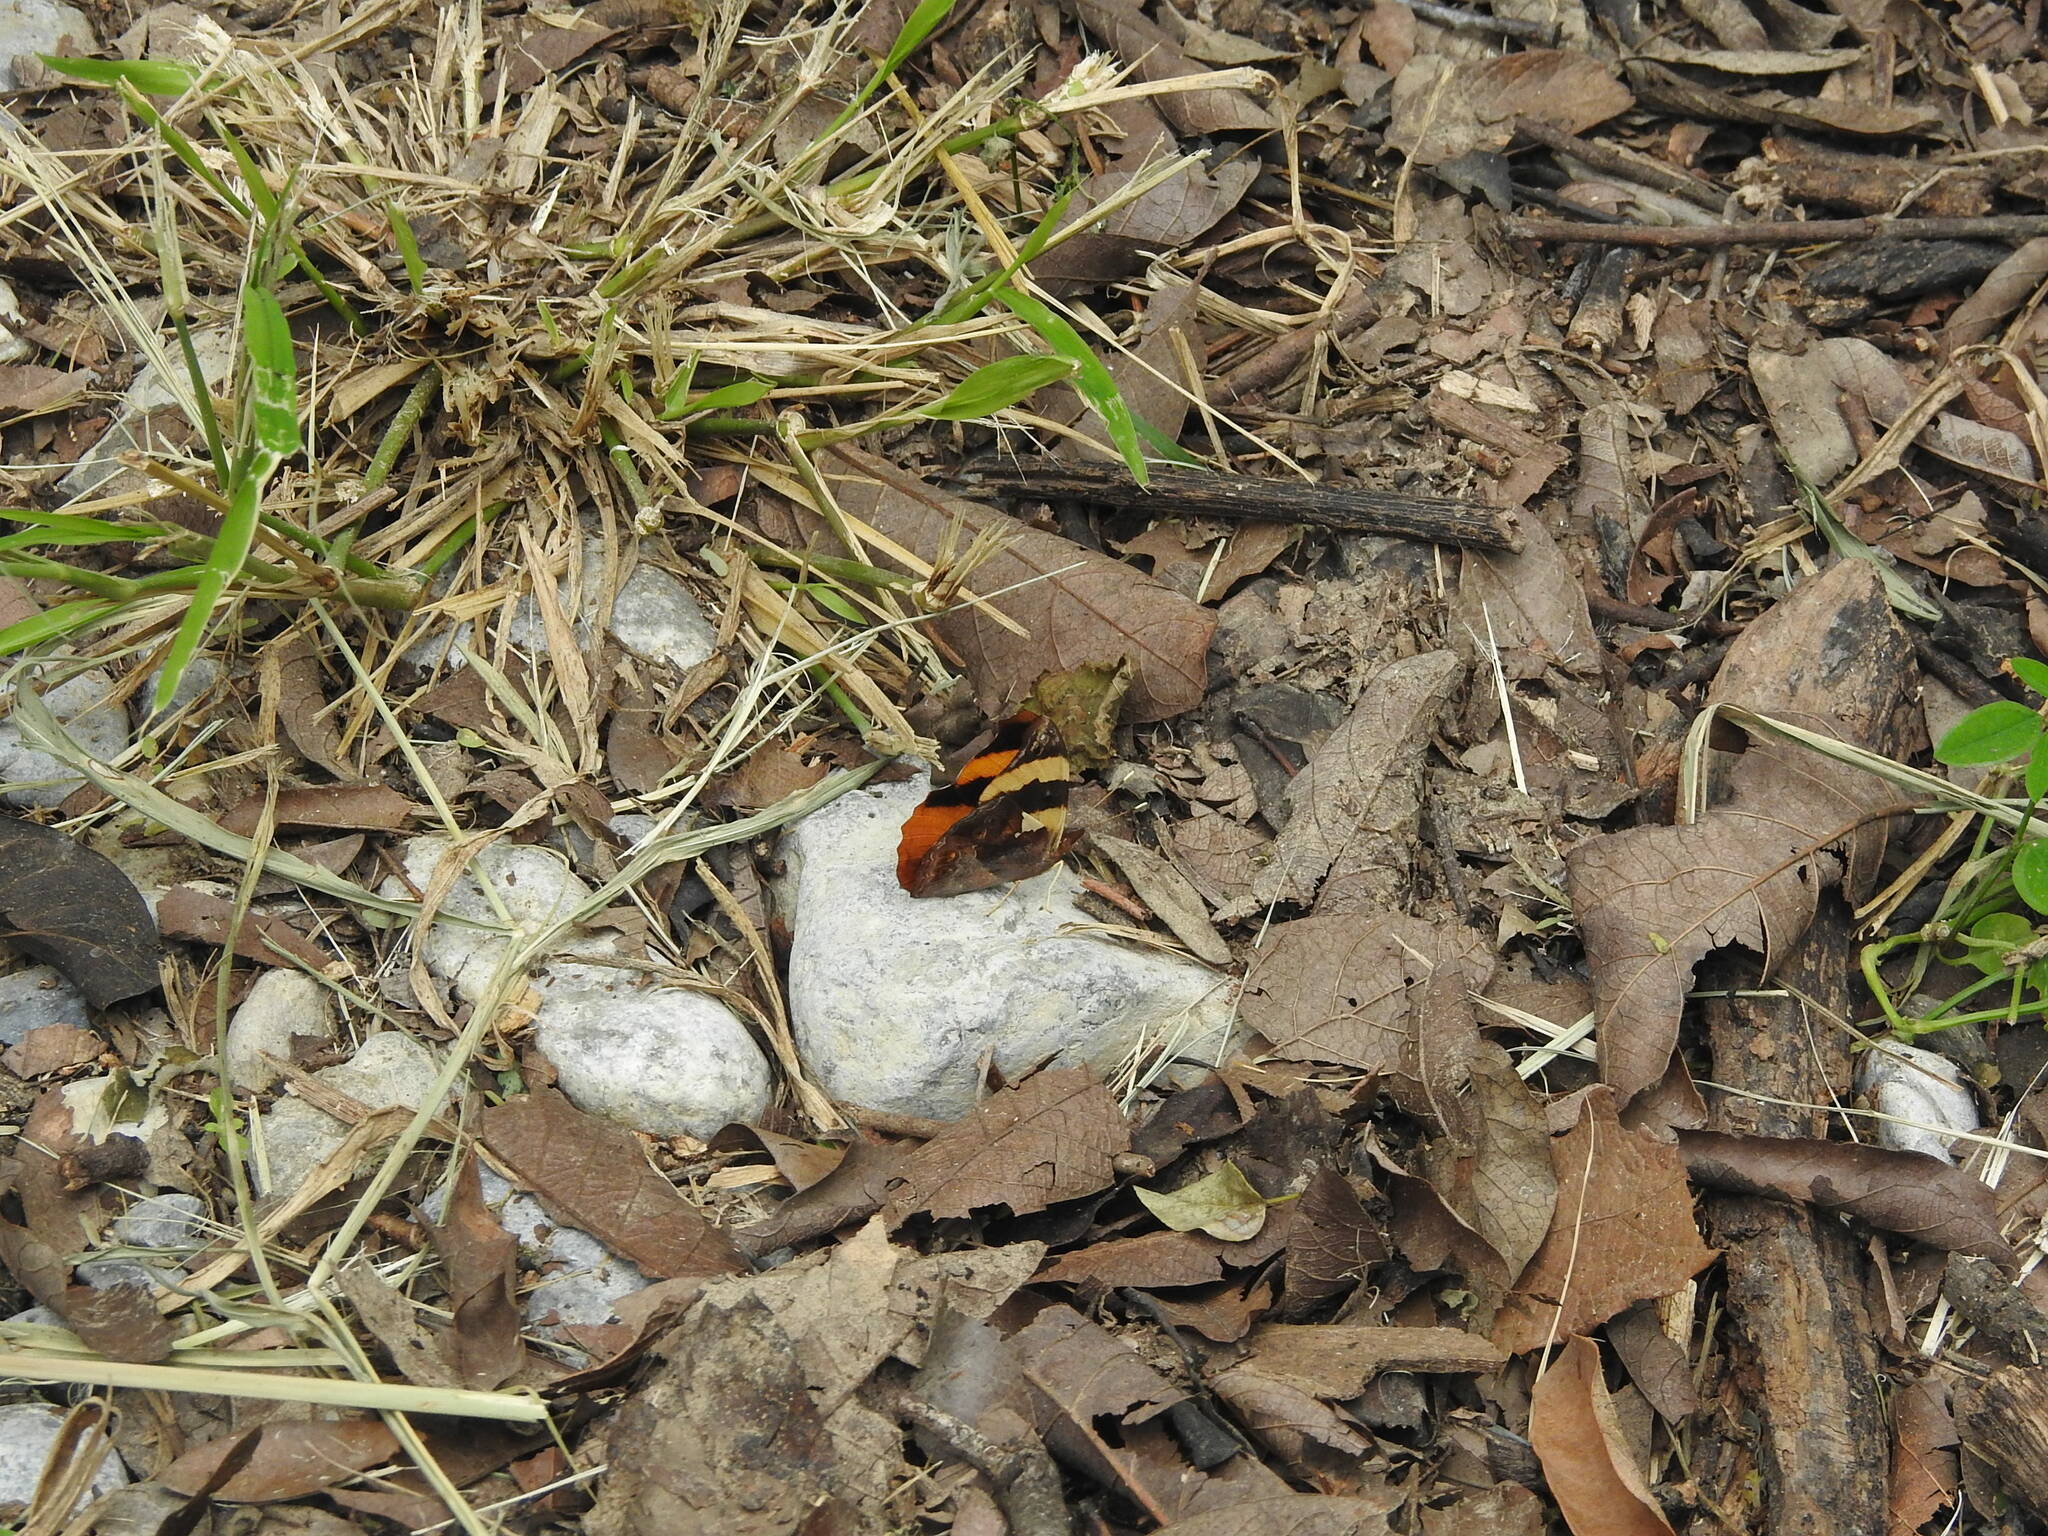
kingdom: Animalia
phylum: Arthropoda
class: Insecta
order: Lepidoptera
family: Nymphalidae
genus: Epiphile
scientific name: Epiphile adrasta
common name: Common banner
